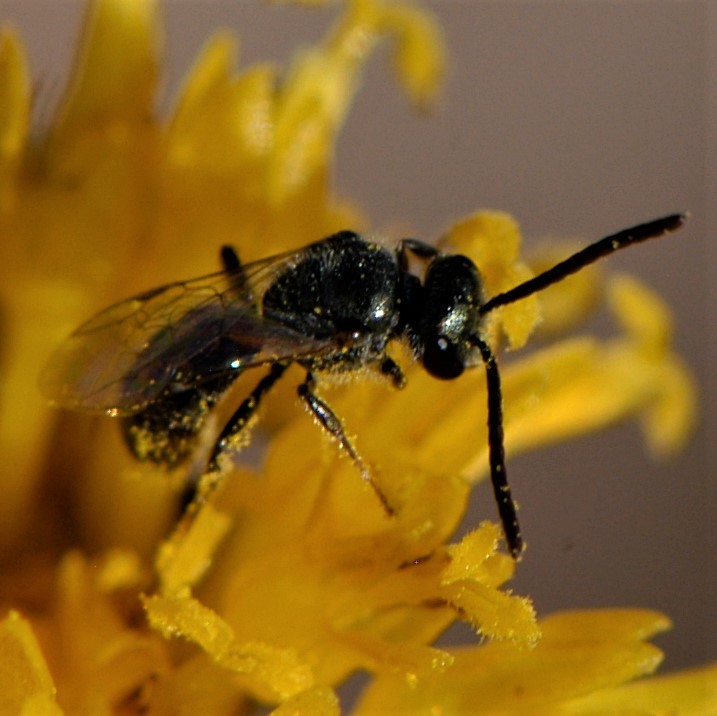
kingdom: Animalia
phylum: Arthropoda
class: Insecta
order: Hymenoptera
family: Halictidae
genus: Dialictus
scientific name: Dialictus
